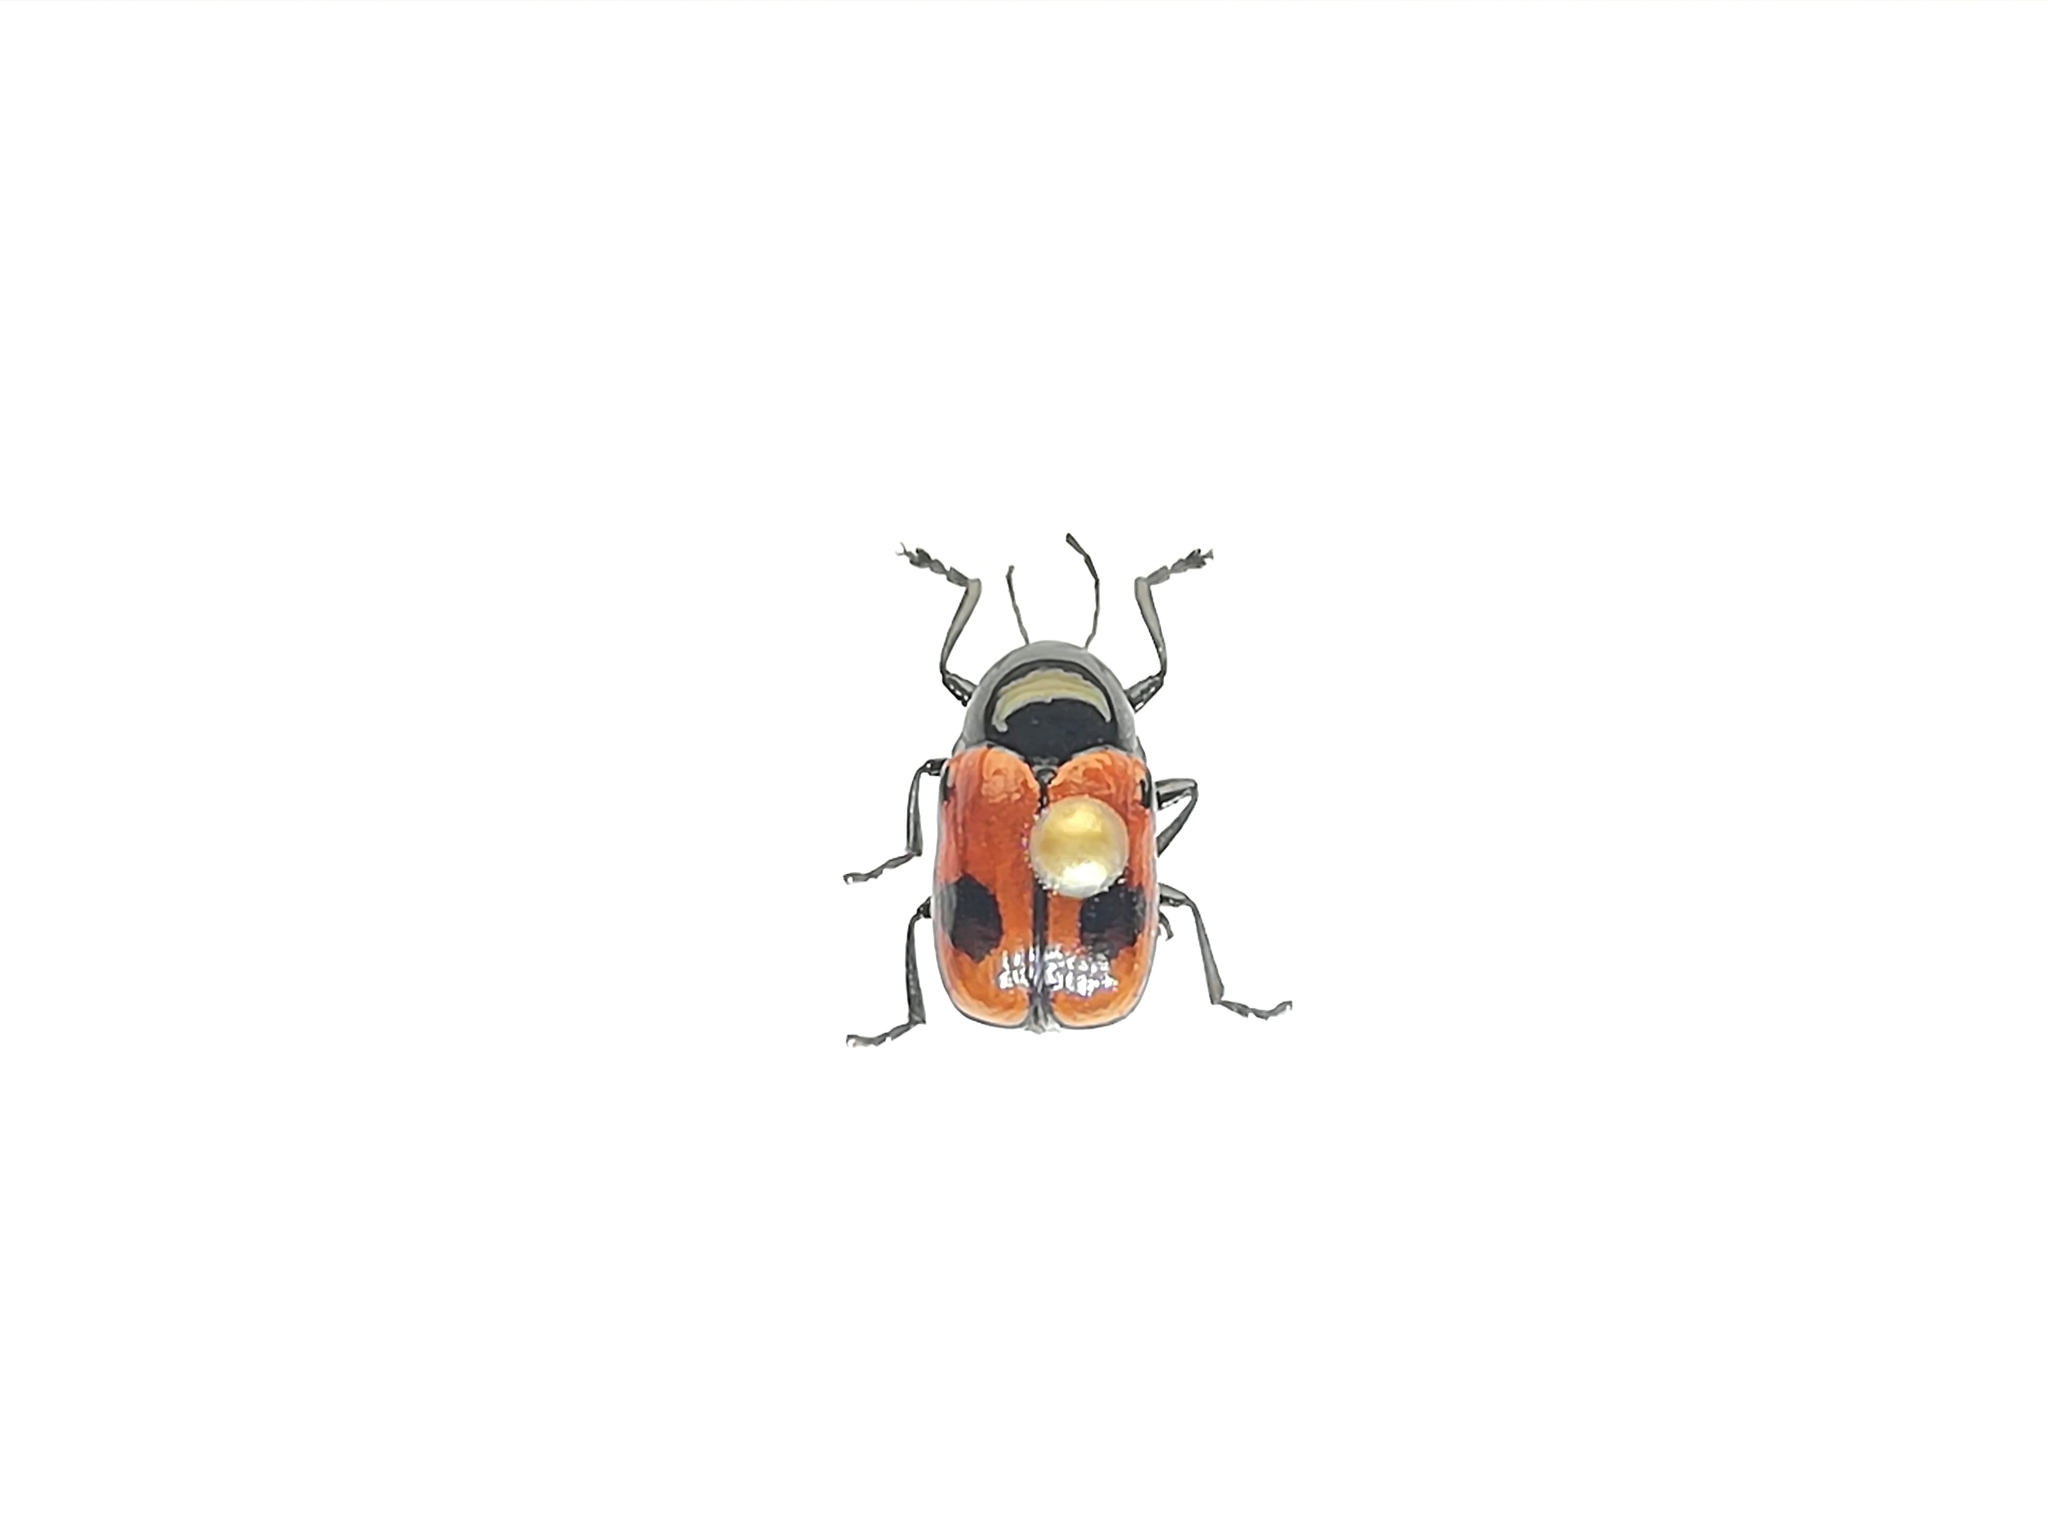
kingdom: Animalia
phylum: Arthropoda
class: Insecta
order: Coleoptera
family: Chrysomelidae
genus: Chiridopsis
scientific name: Chiridopsis bipunctata
